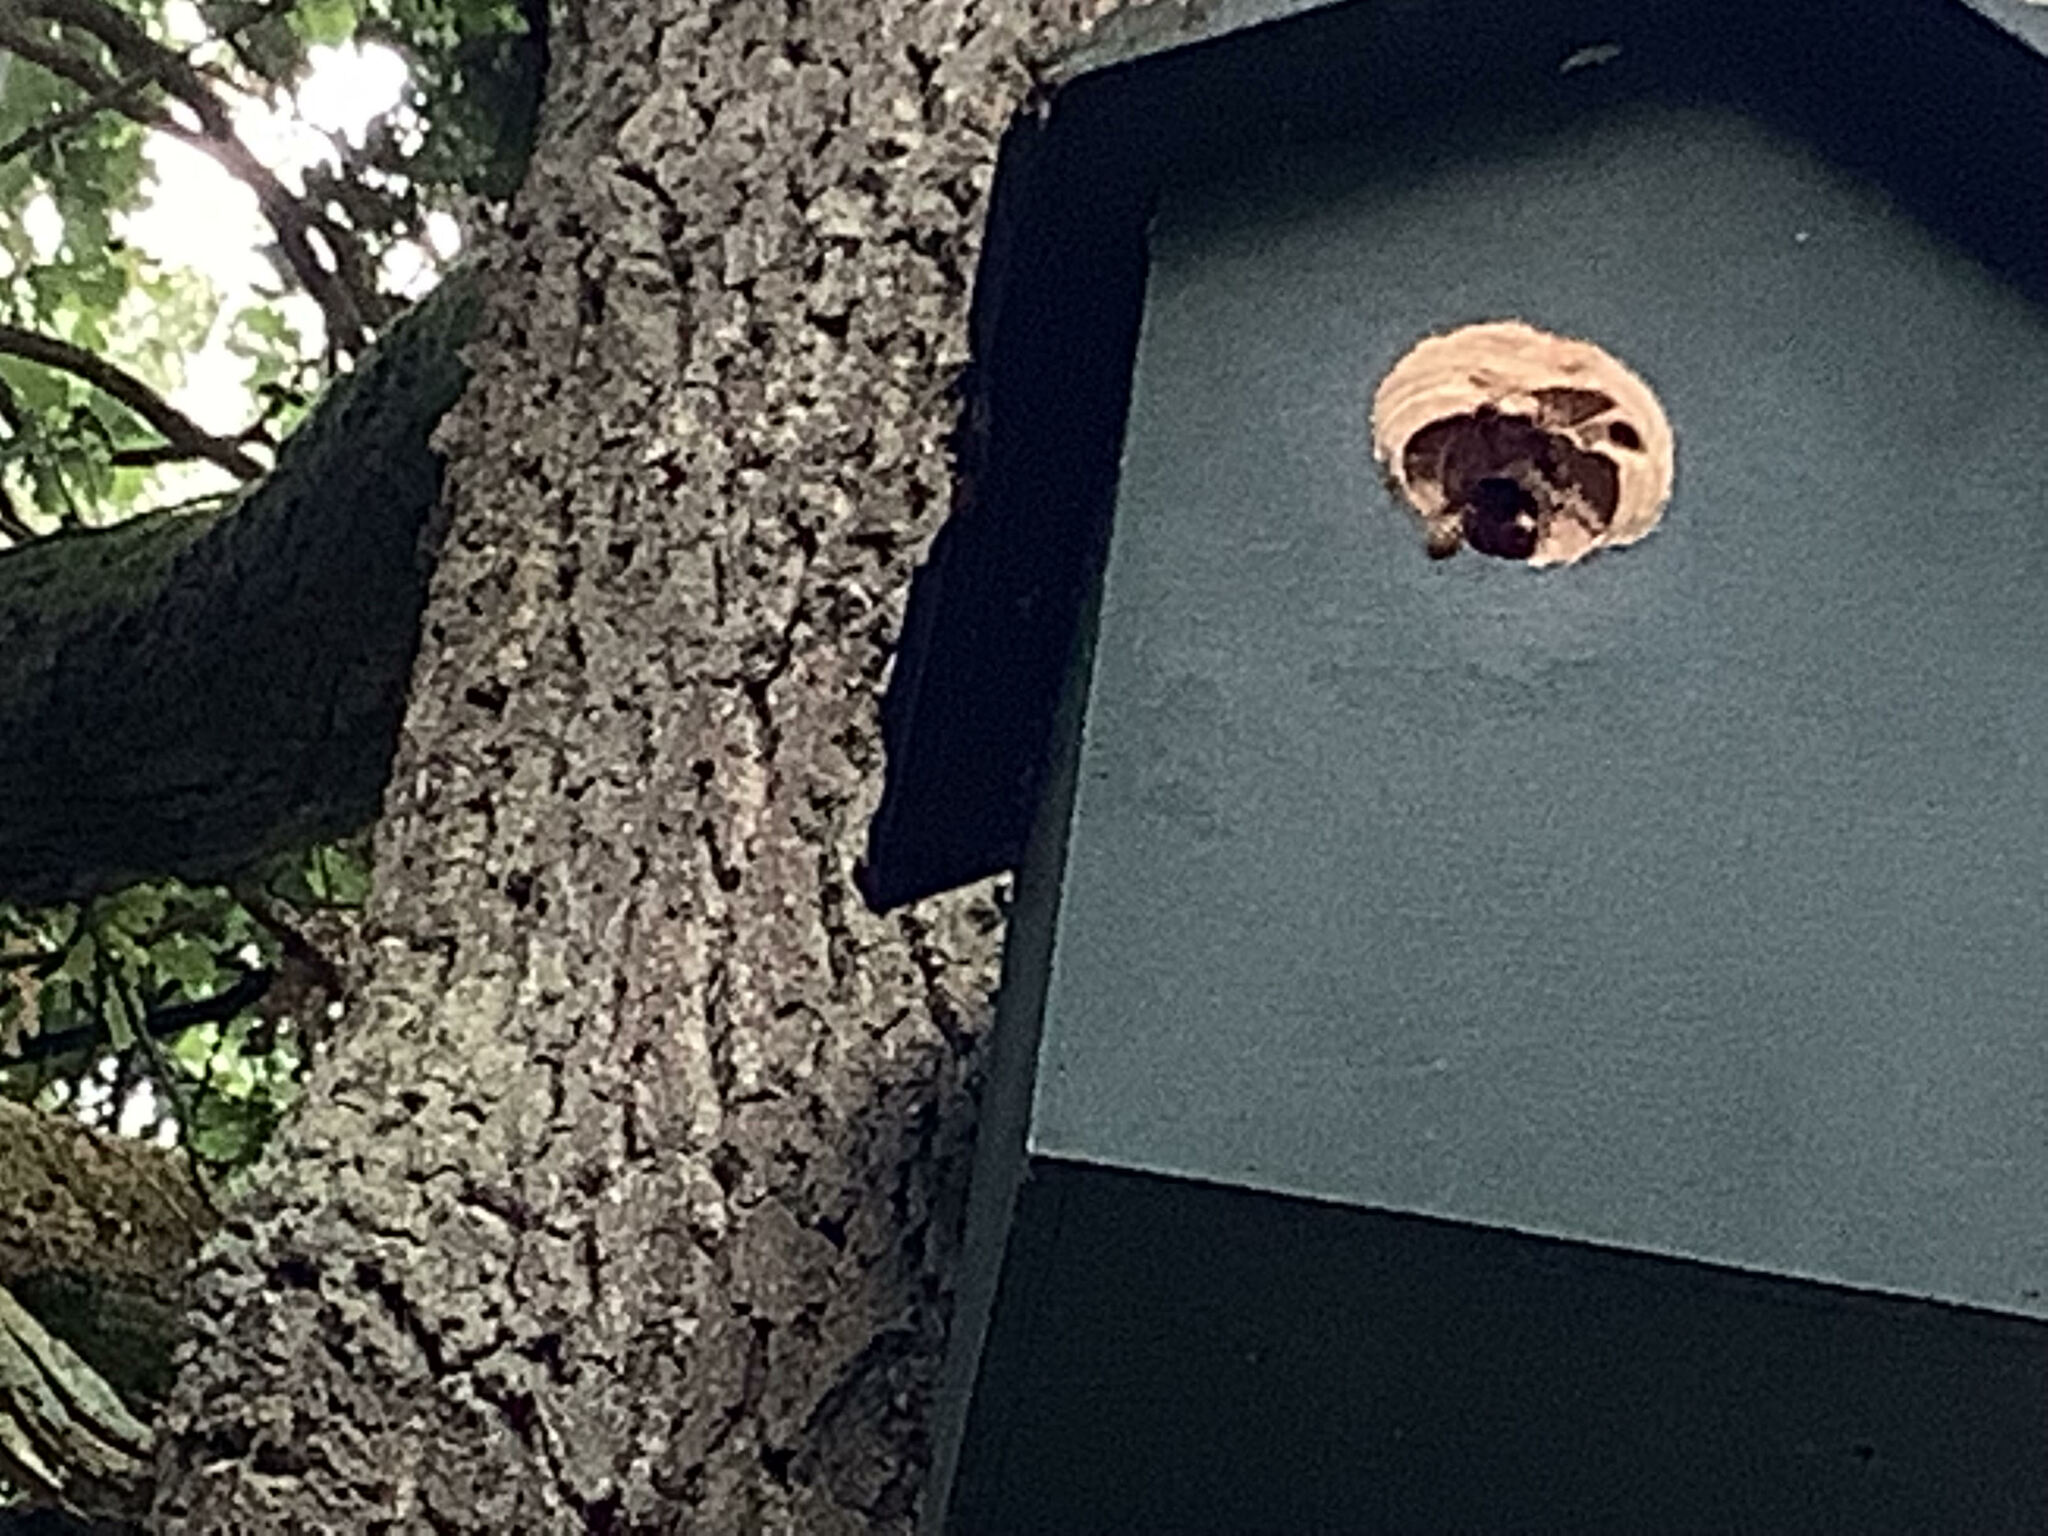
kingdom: Animalia
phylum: Arthropoda
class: Insecta
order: Hymenoptera
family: Vespidae
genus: Vespa
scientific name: Vespa crabro
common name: Hornet
